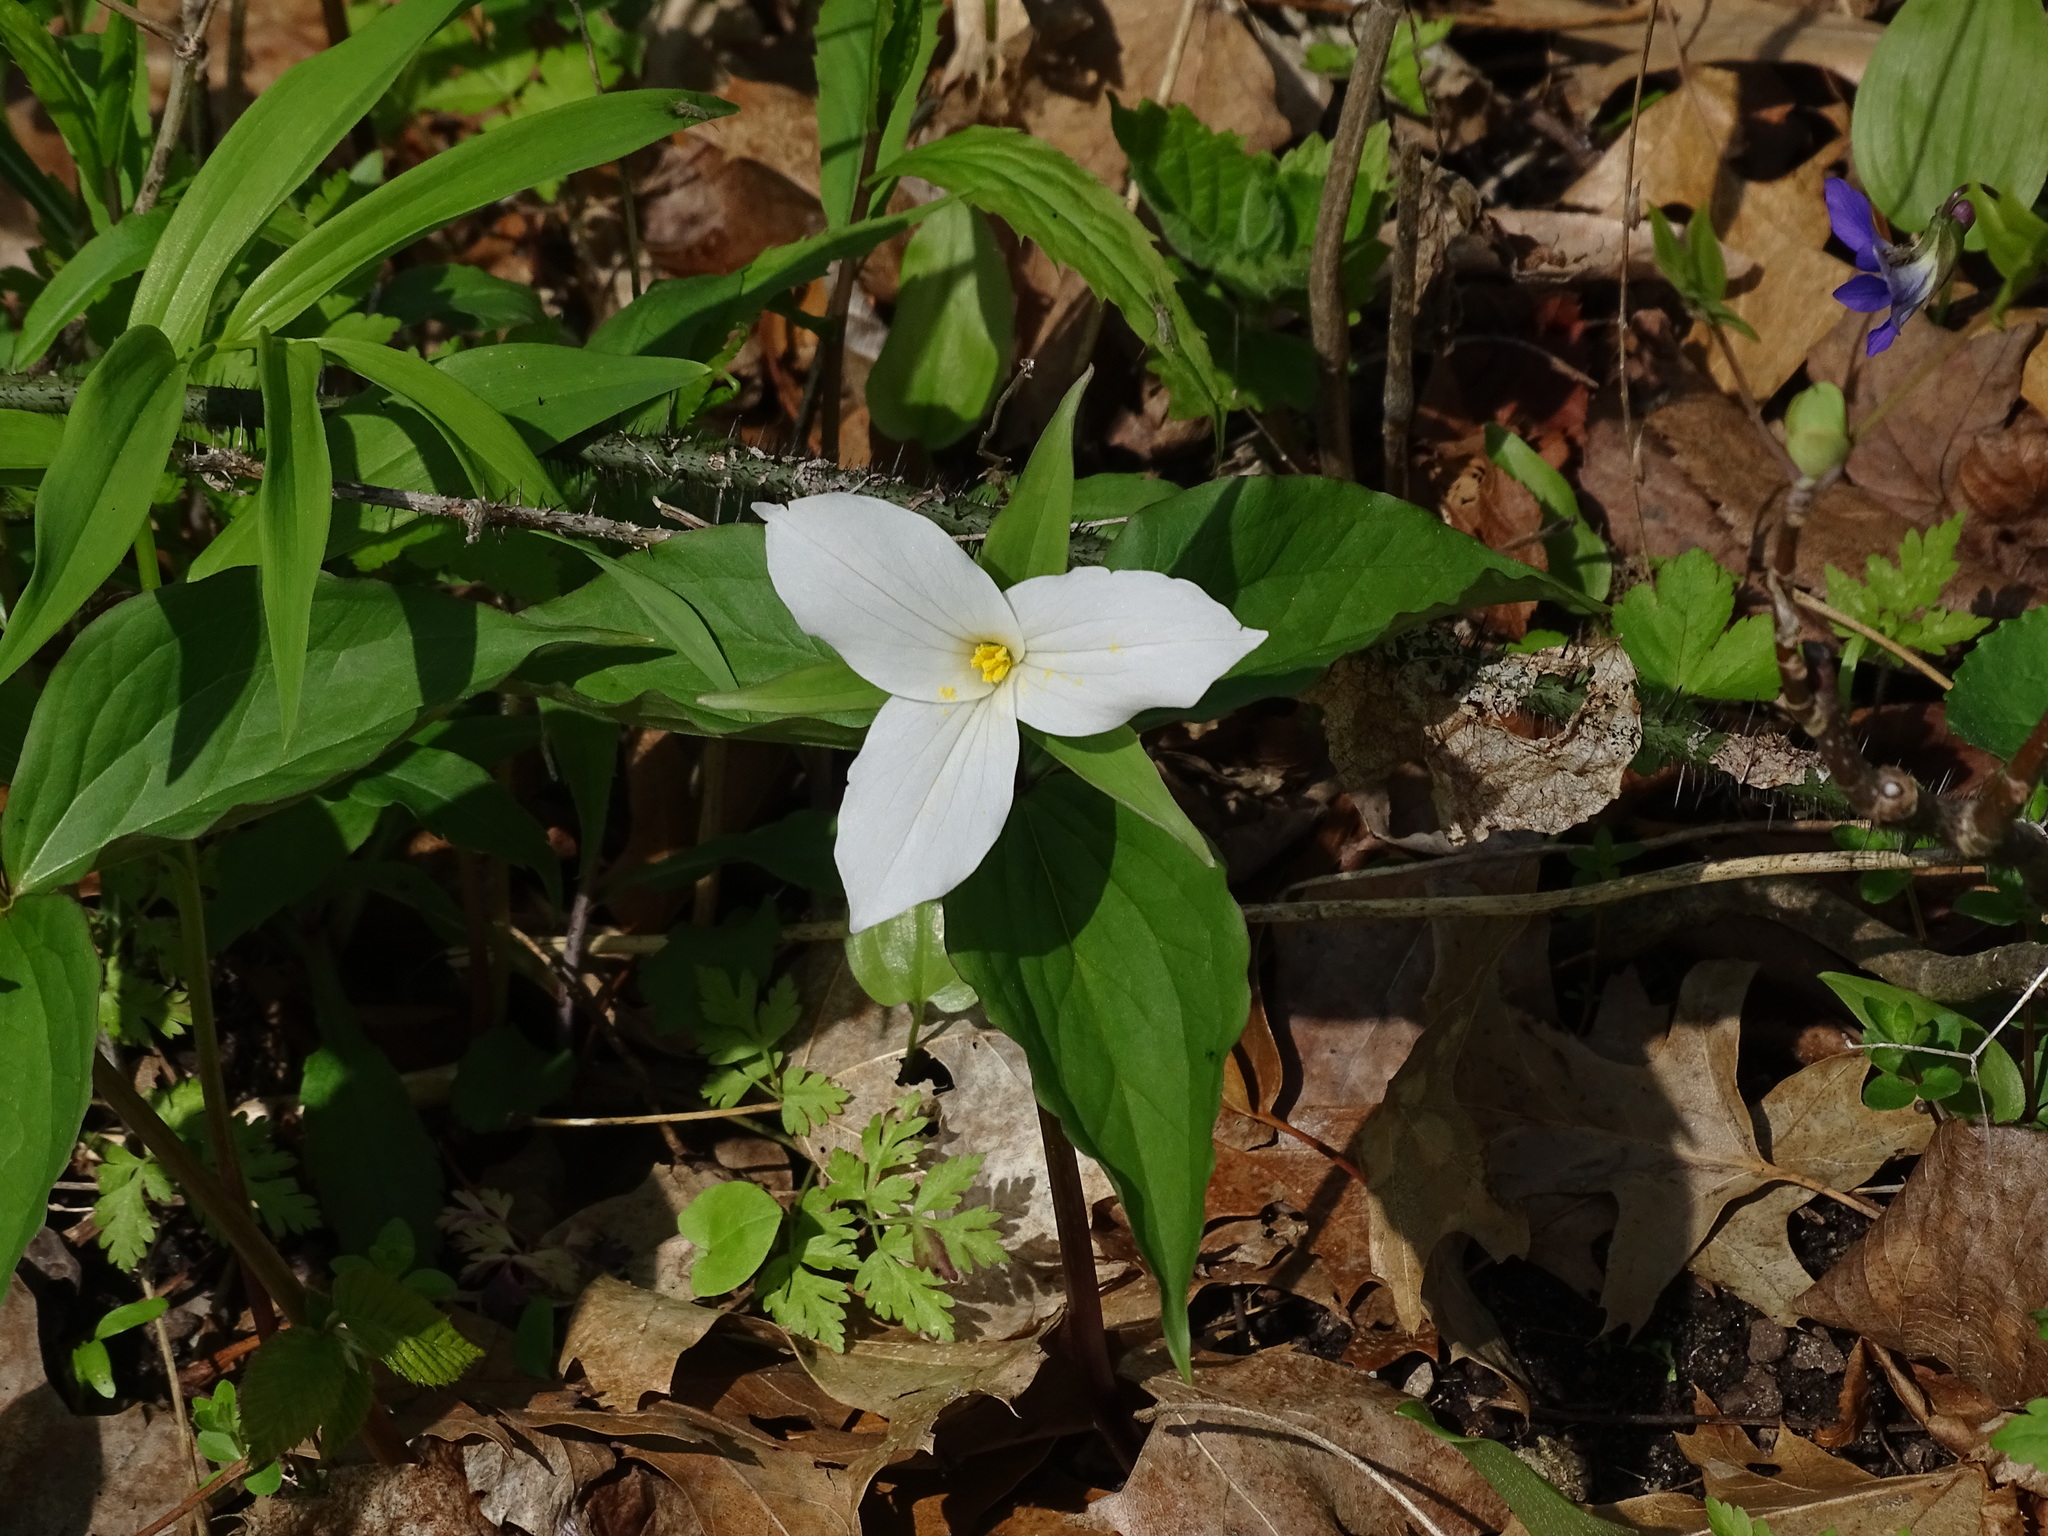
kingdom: Plantae
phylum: Tracheophyta
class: Liliopsida
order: Liliales
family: Melanthiaceae
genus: Trillium
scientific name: Trillium grandiflorum
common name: Great white trillium
